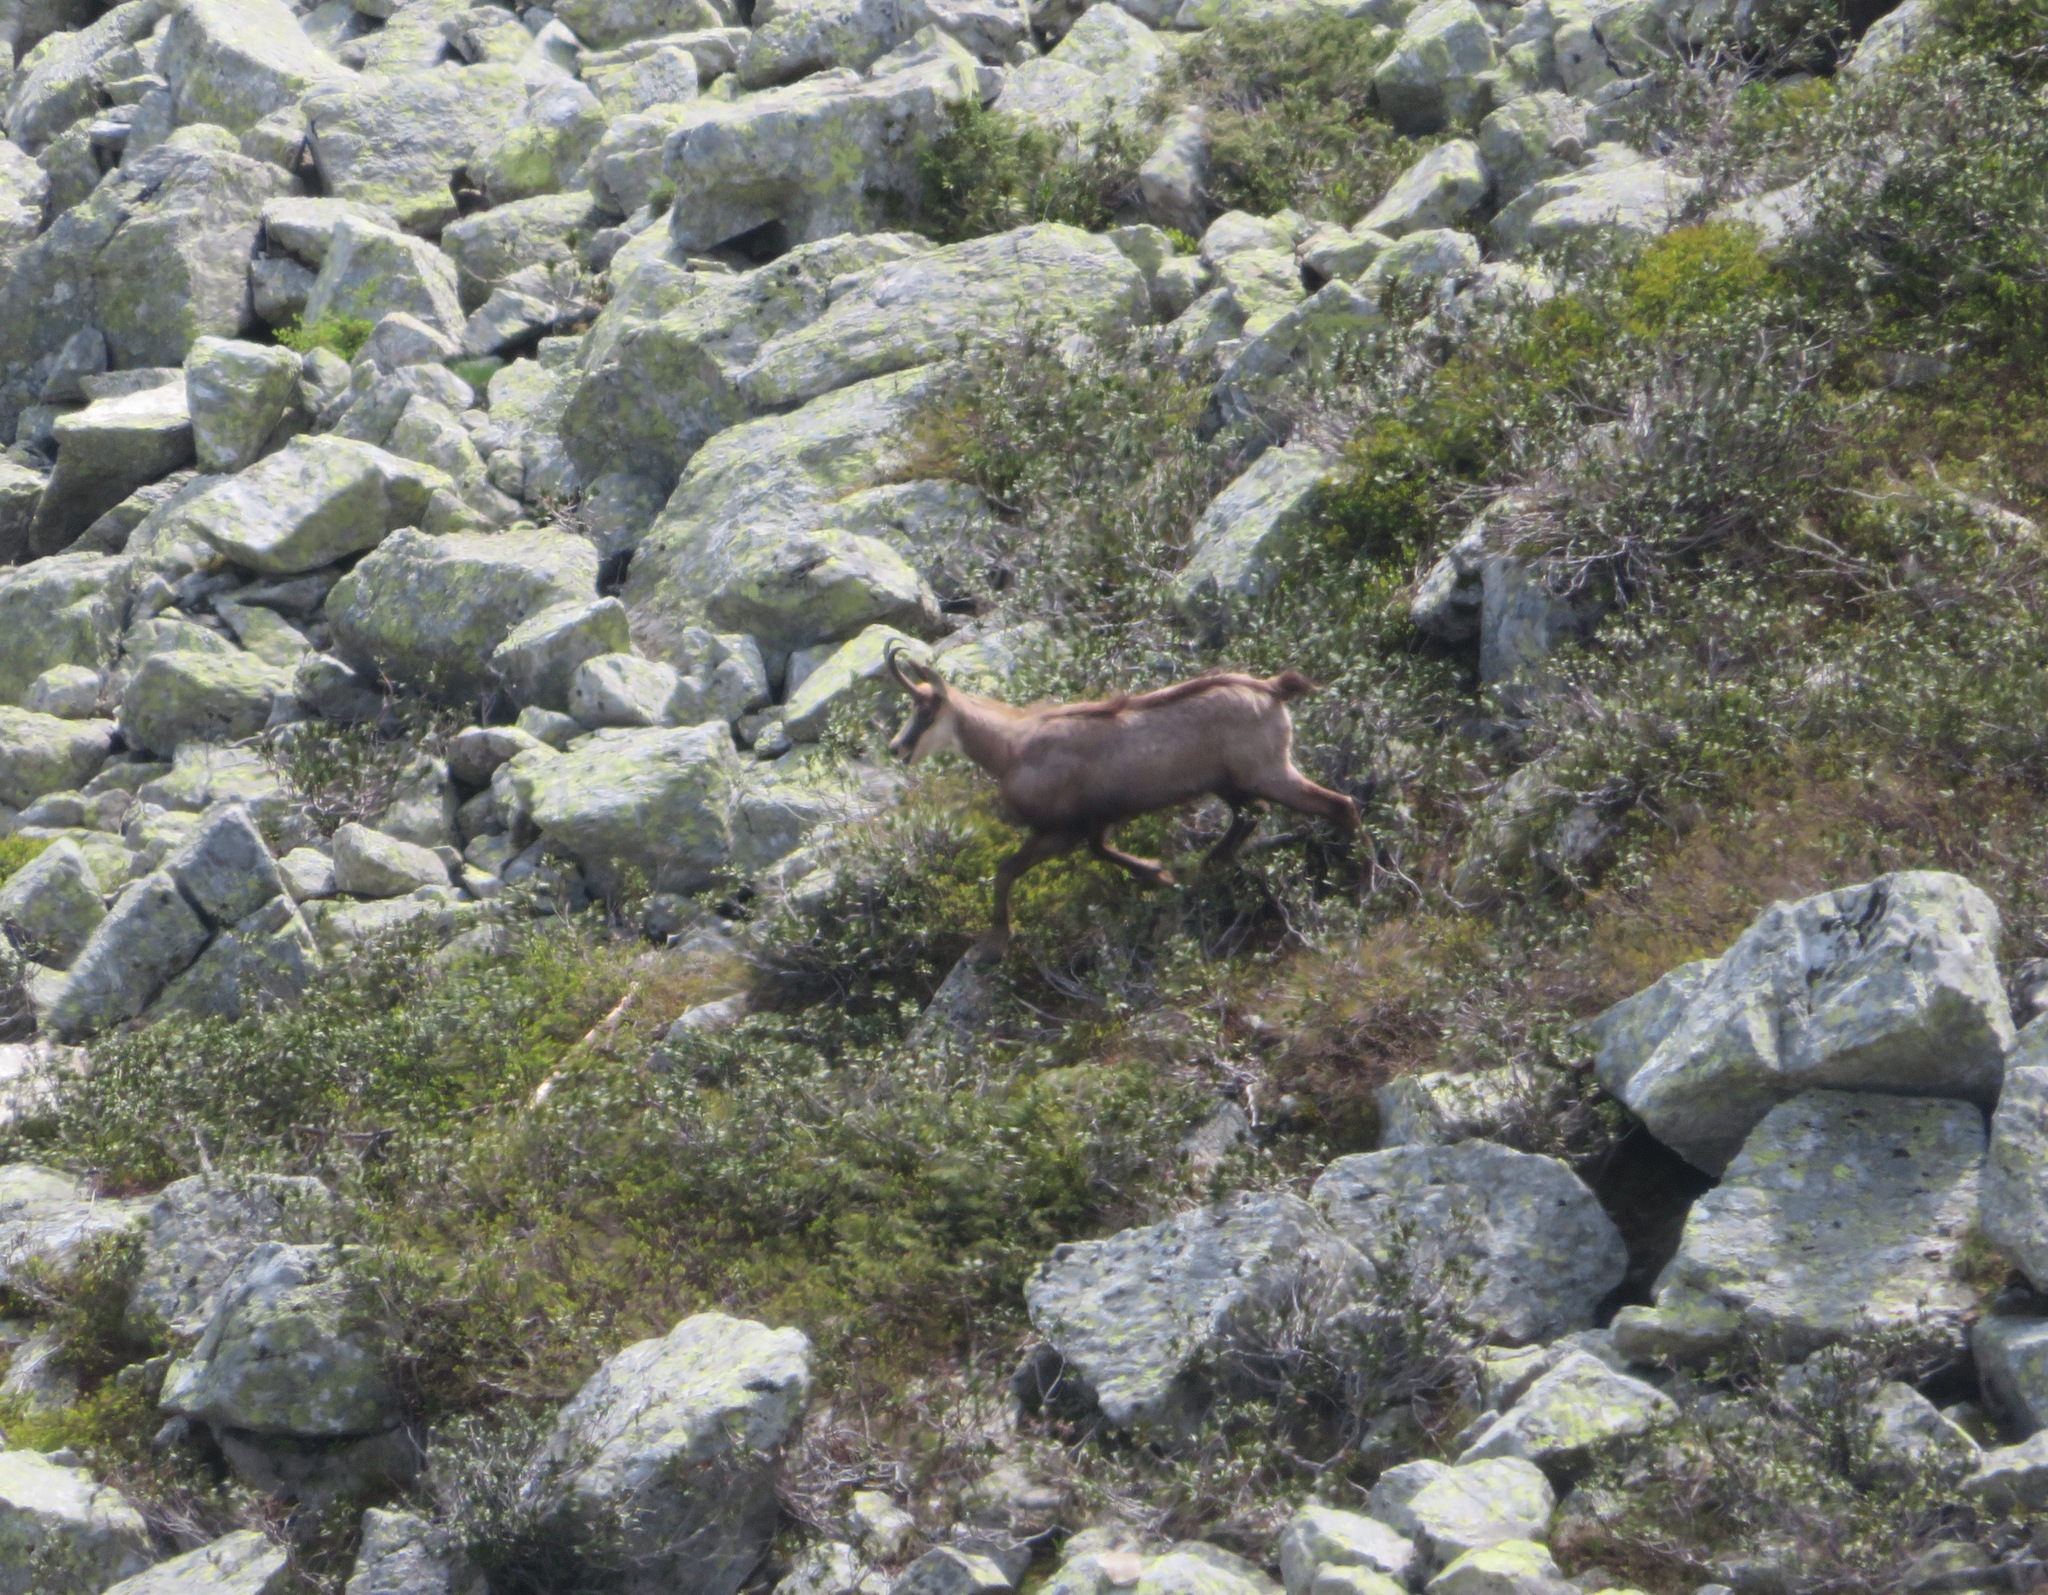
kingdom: Animalia
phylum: Chordata
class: Mammalia
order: Artiodactyla
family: Bovidae
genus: Rupicapra
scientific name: Rupicapra rupicapra
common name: Chamois
